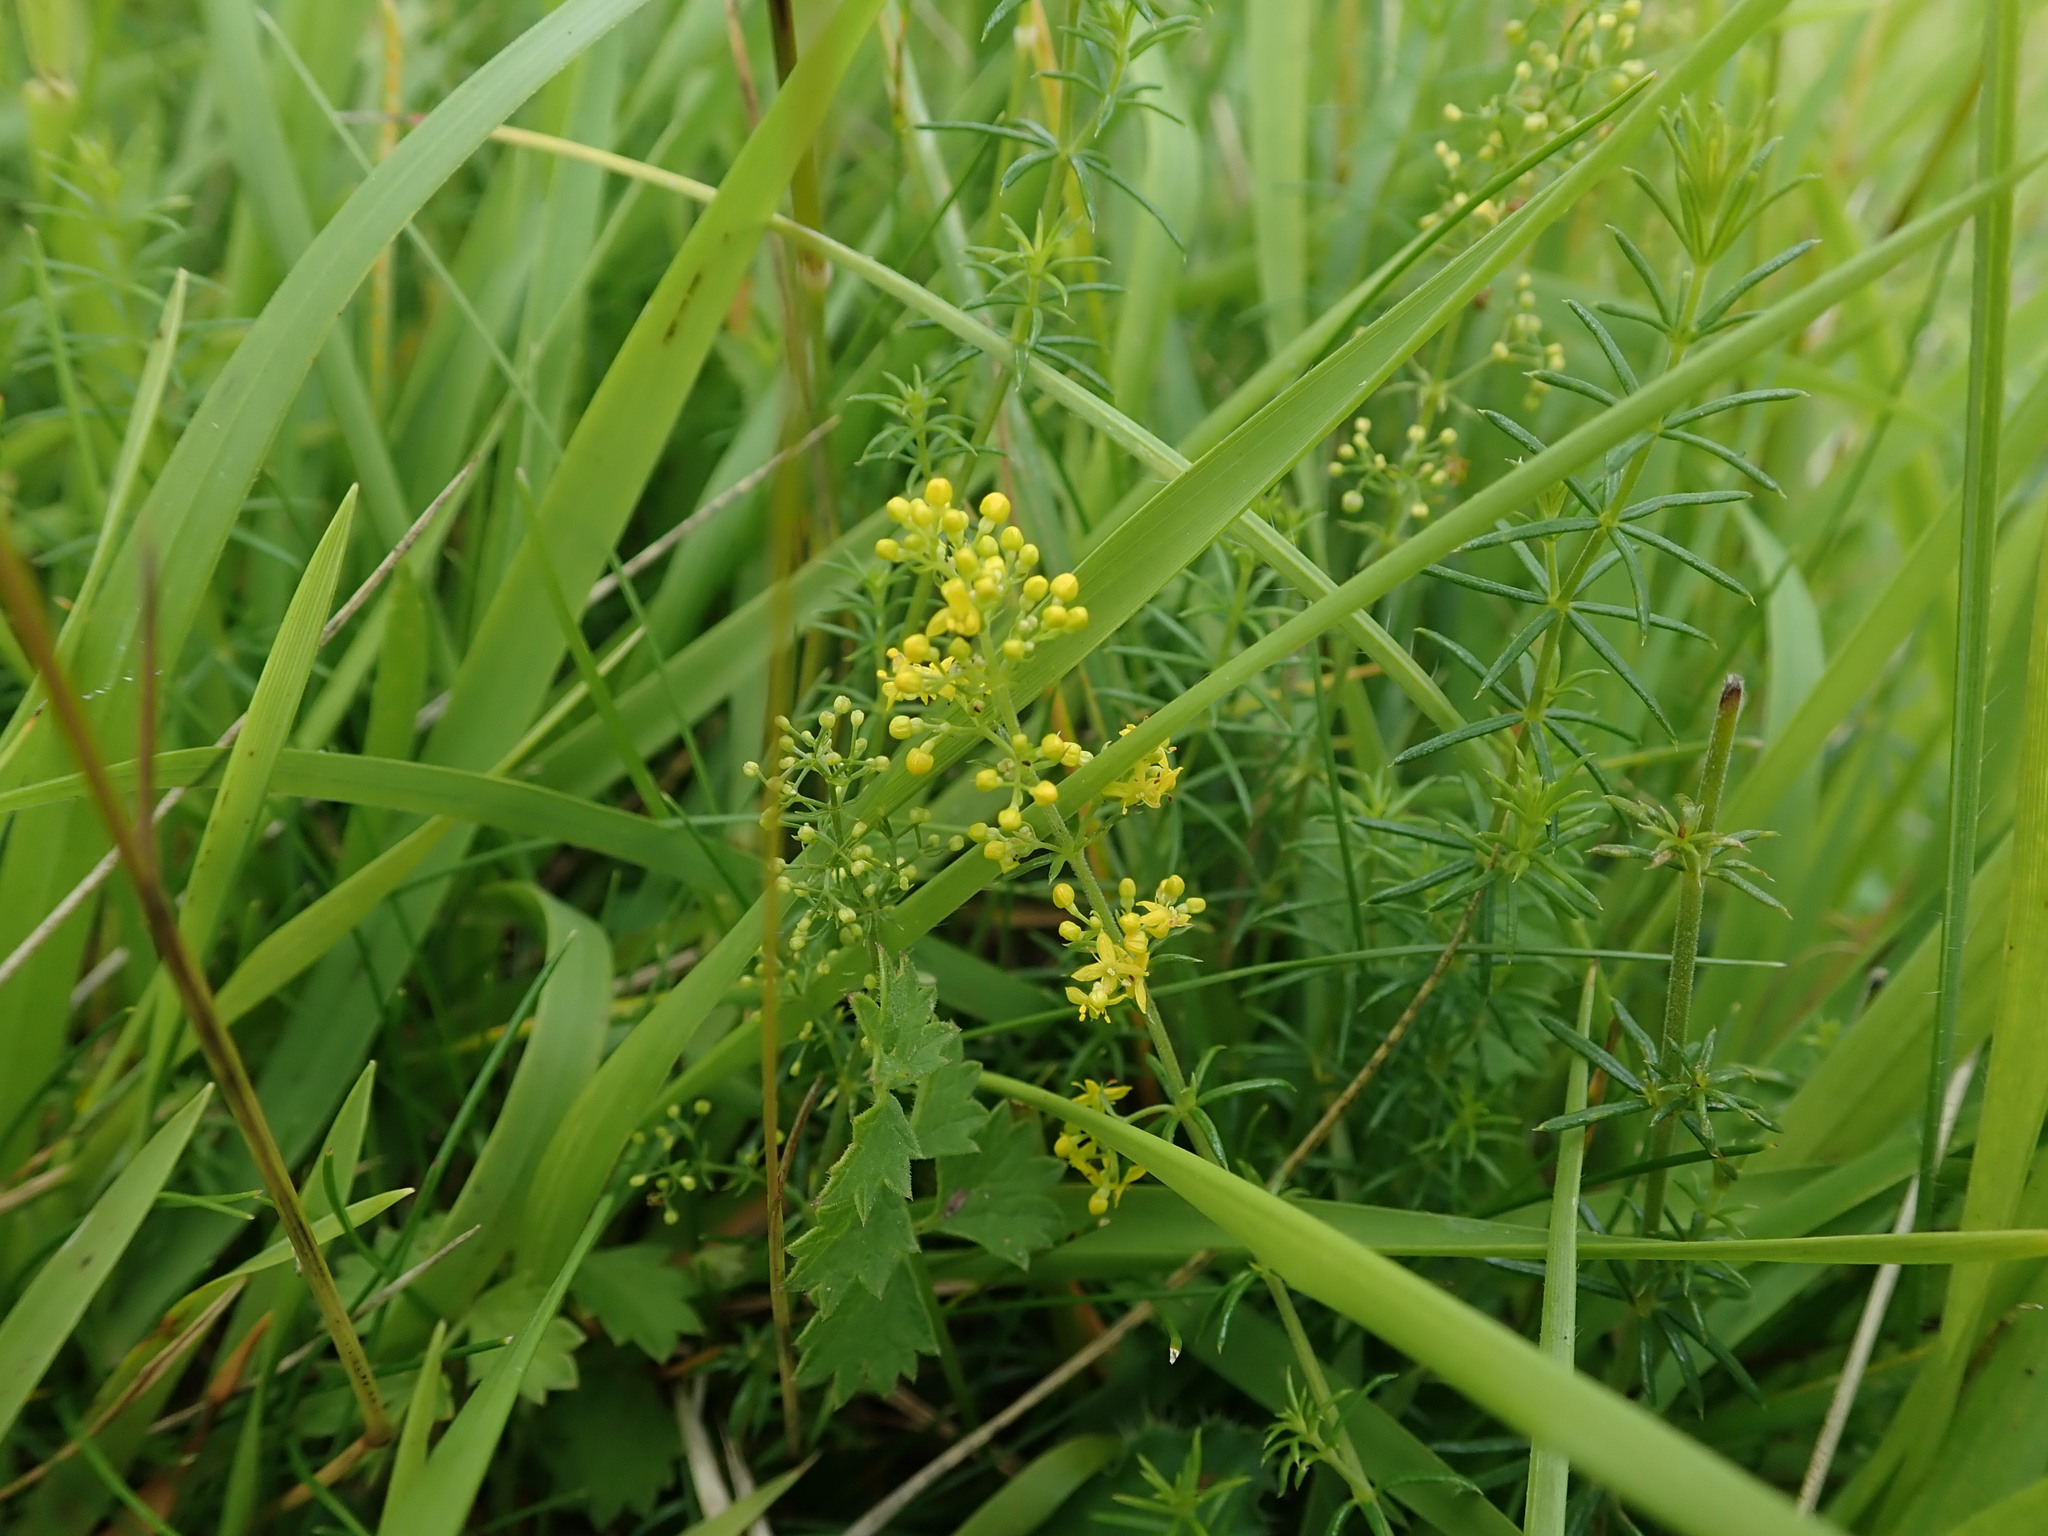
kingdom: Plantae
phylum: Tracheophyta
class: Magnoliopsida
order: Gentianales
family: Rubiaceae
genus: Galium
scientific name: Galium verum
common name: Lady's bedstraw
